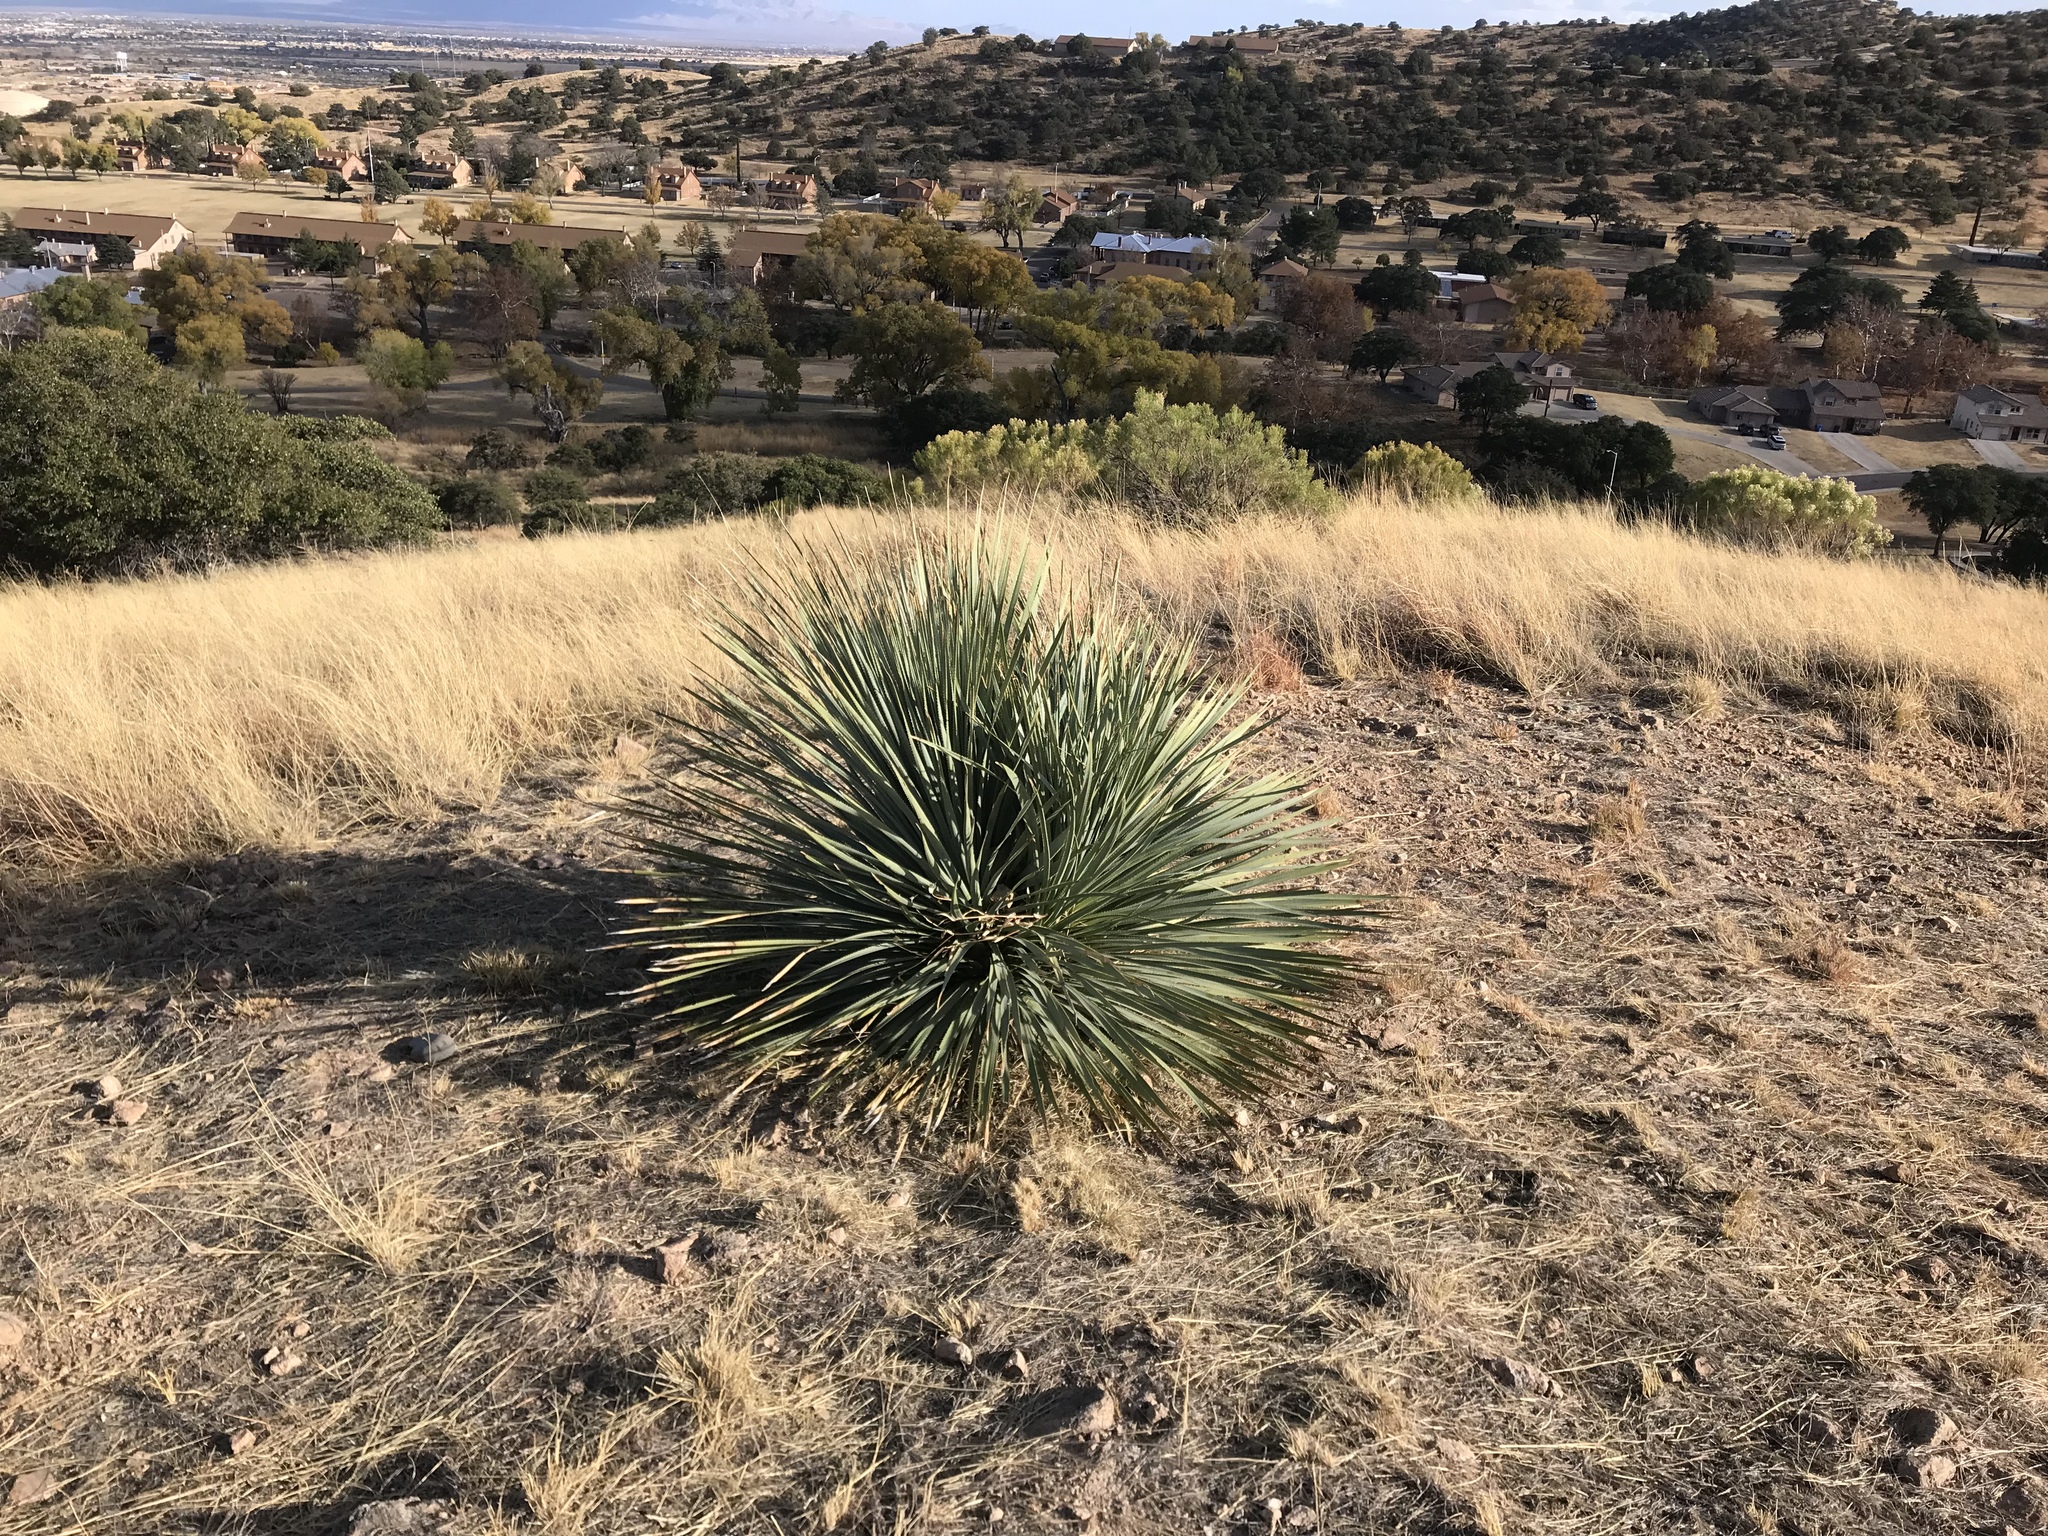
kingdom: Plantae
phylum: Tracheophyta
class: Liliopsida
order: Asparagales
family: Asparagaceae
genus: Dasylirion
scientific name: Dasylirion wheeleri
